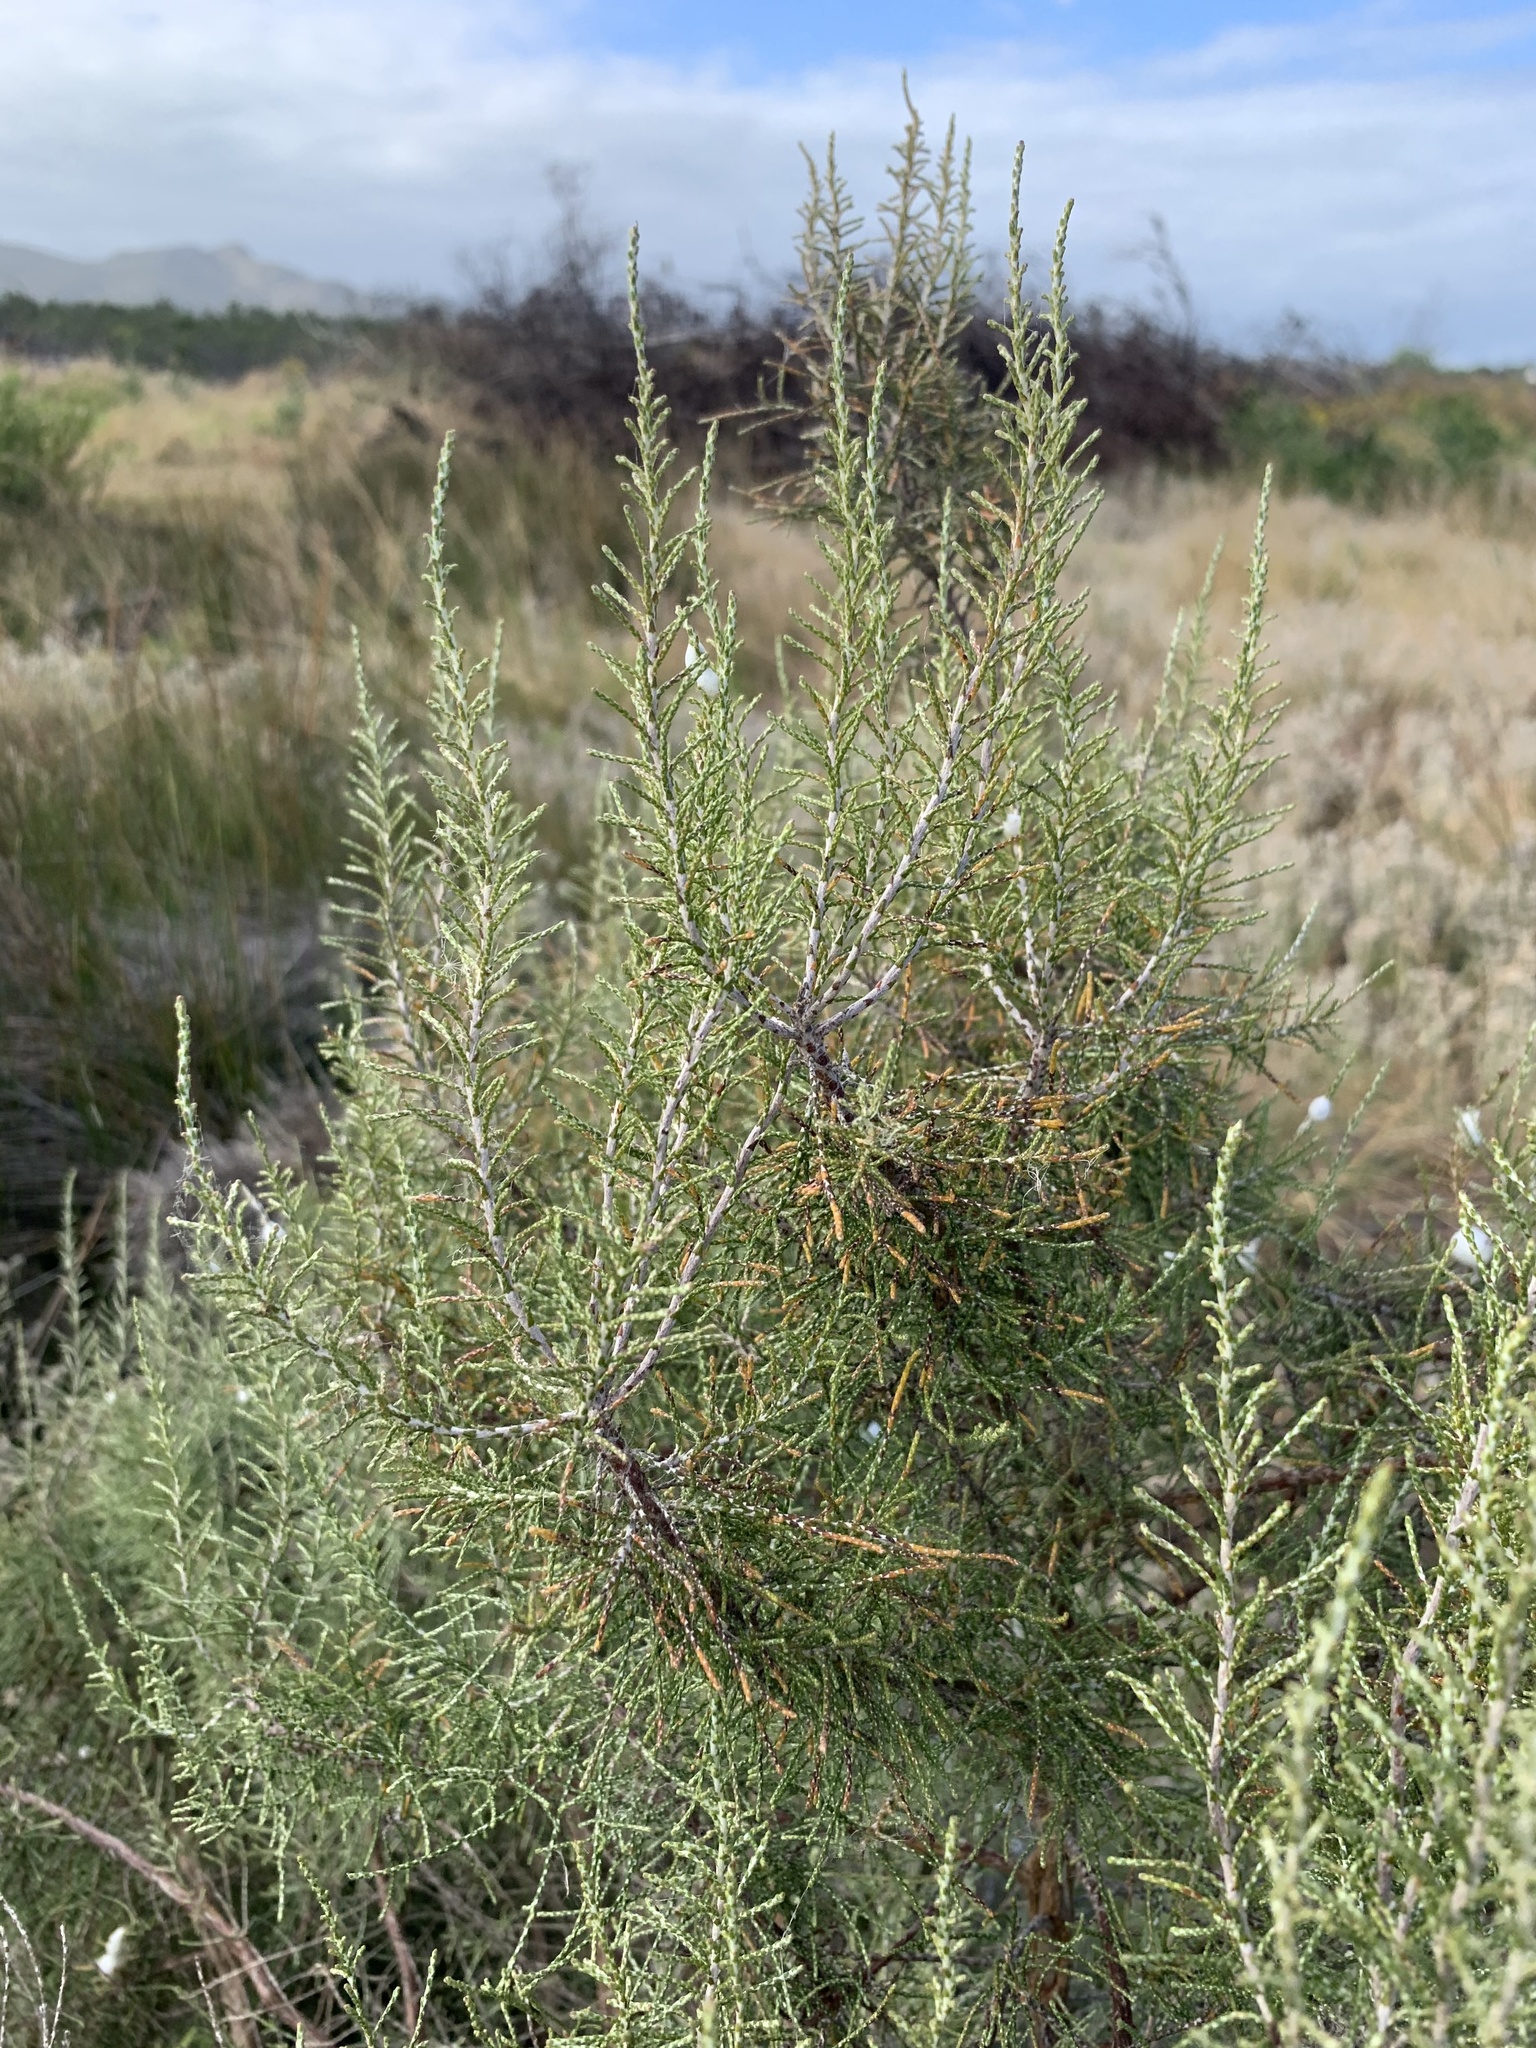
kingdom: Plantae
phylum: Tracheophyta
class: Magnoliopsida
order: Asterales
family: Asteraceae
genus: Dicerothamnus
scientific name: Dicerothamnus rhinocerotis
